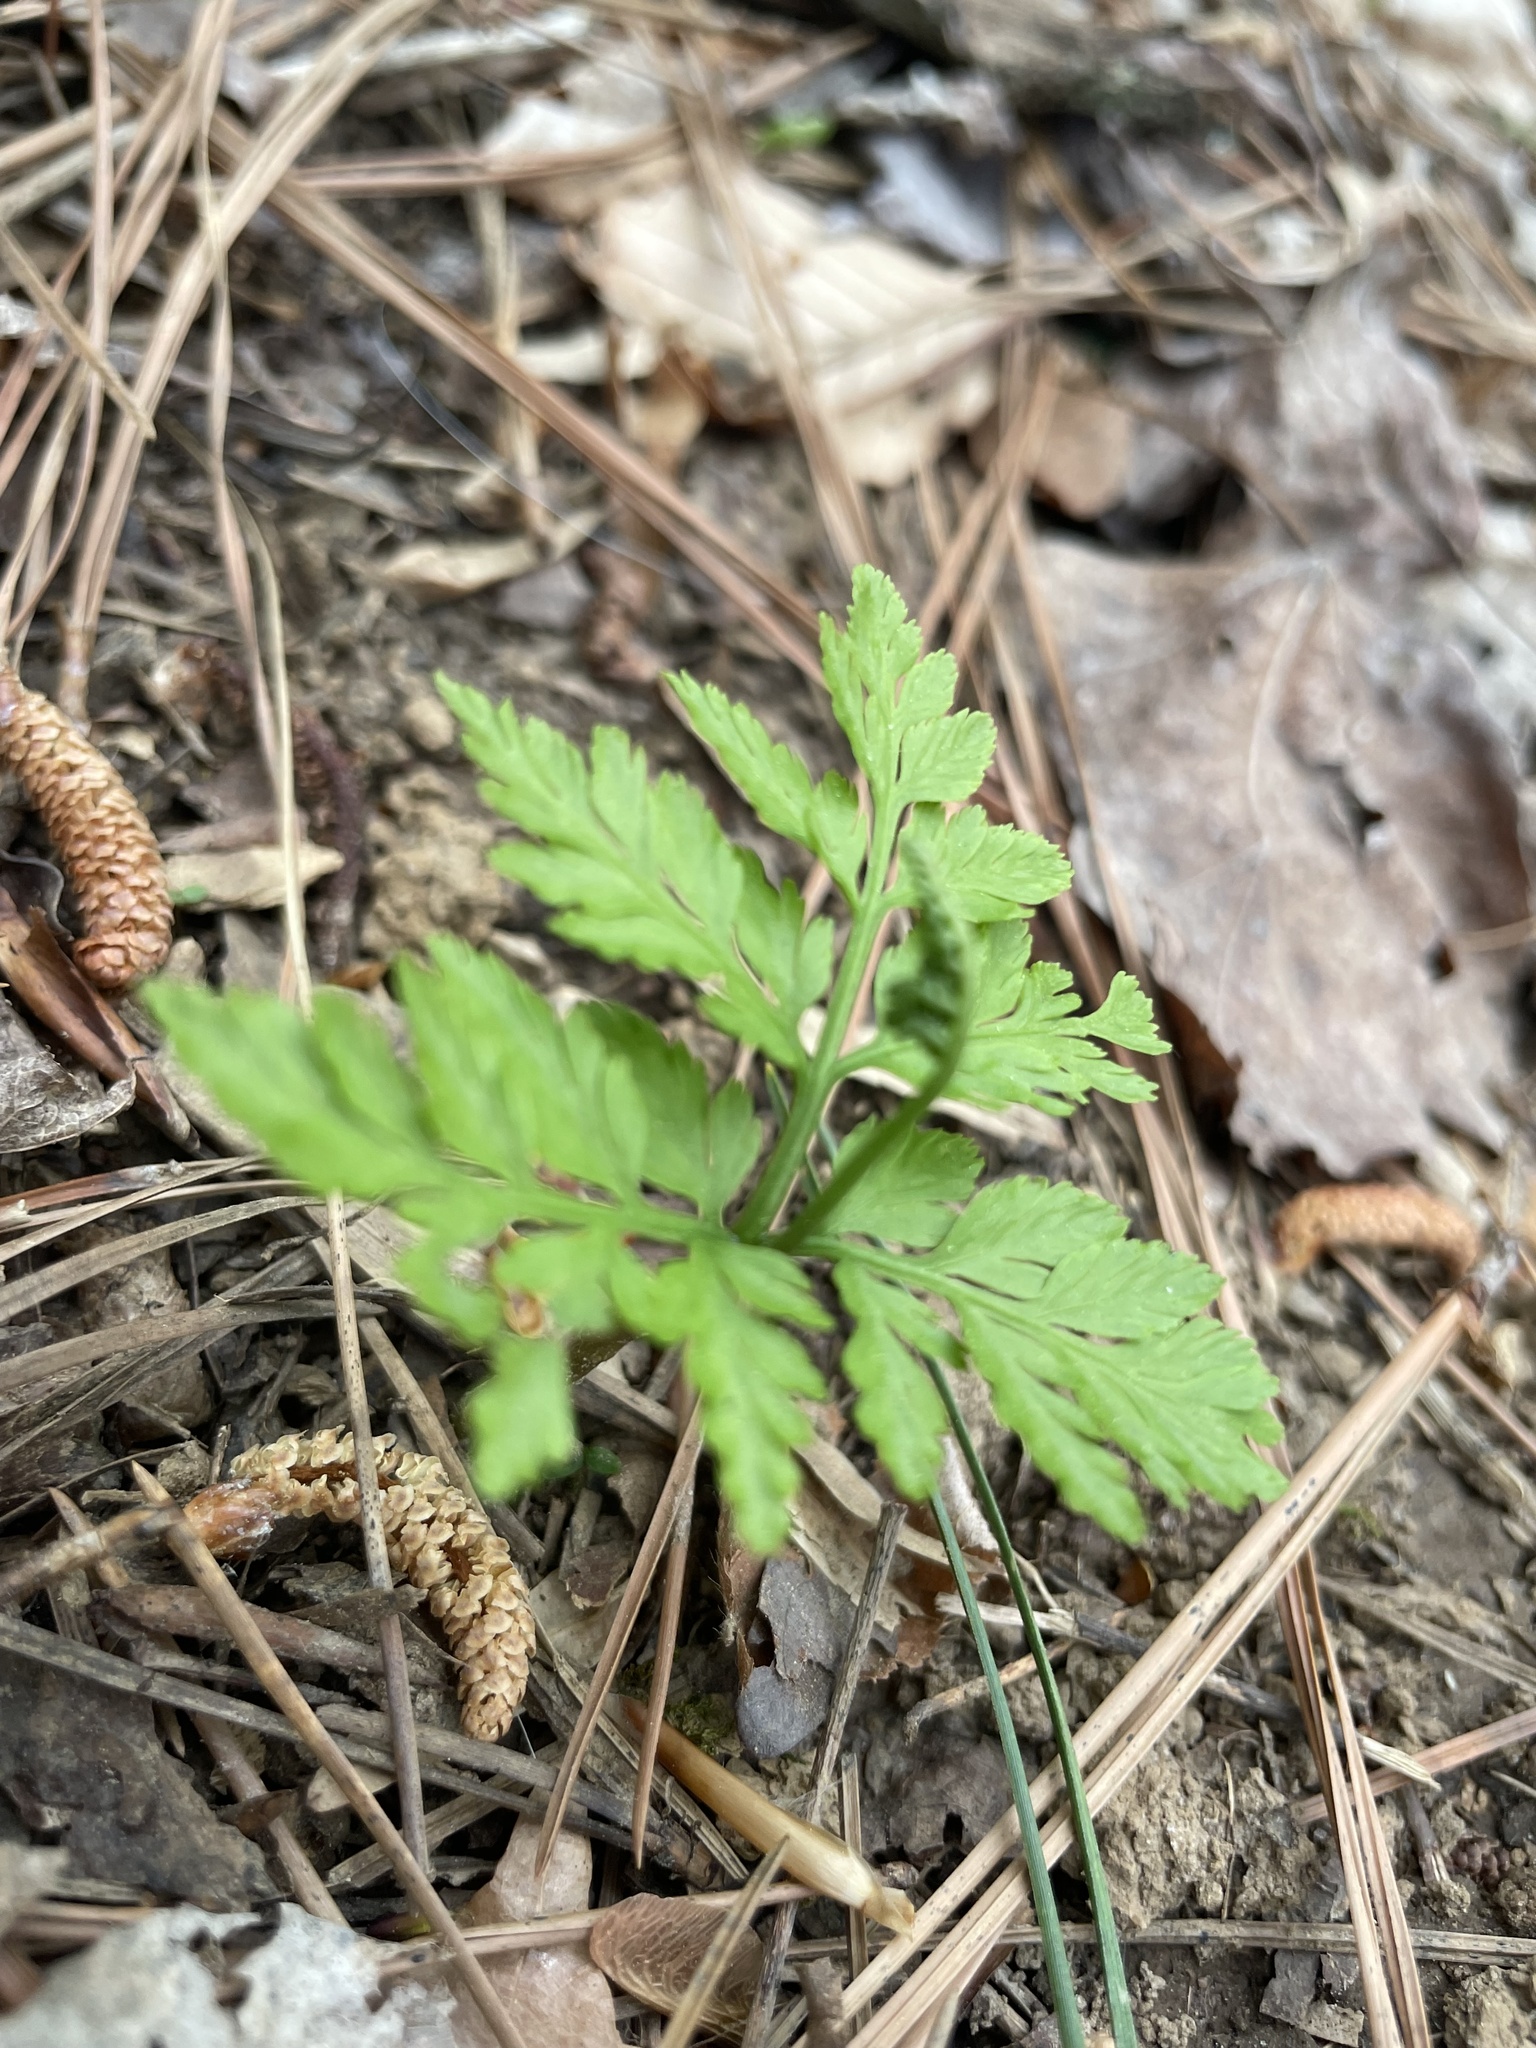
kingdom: Plantae
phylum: Tracheophyta
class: Polypodiopsida
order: Ophioglossales
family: Ophioglossaceae
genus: Botrypus
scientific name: Botrypus virginianus
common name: Common grapefern
